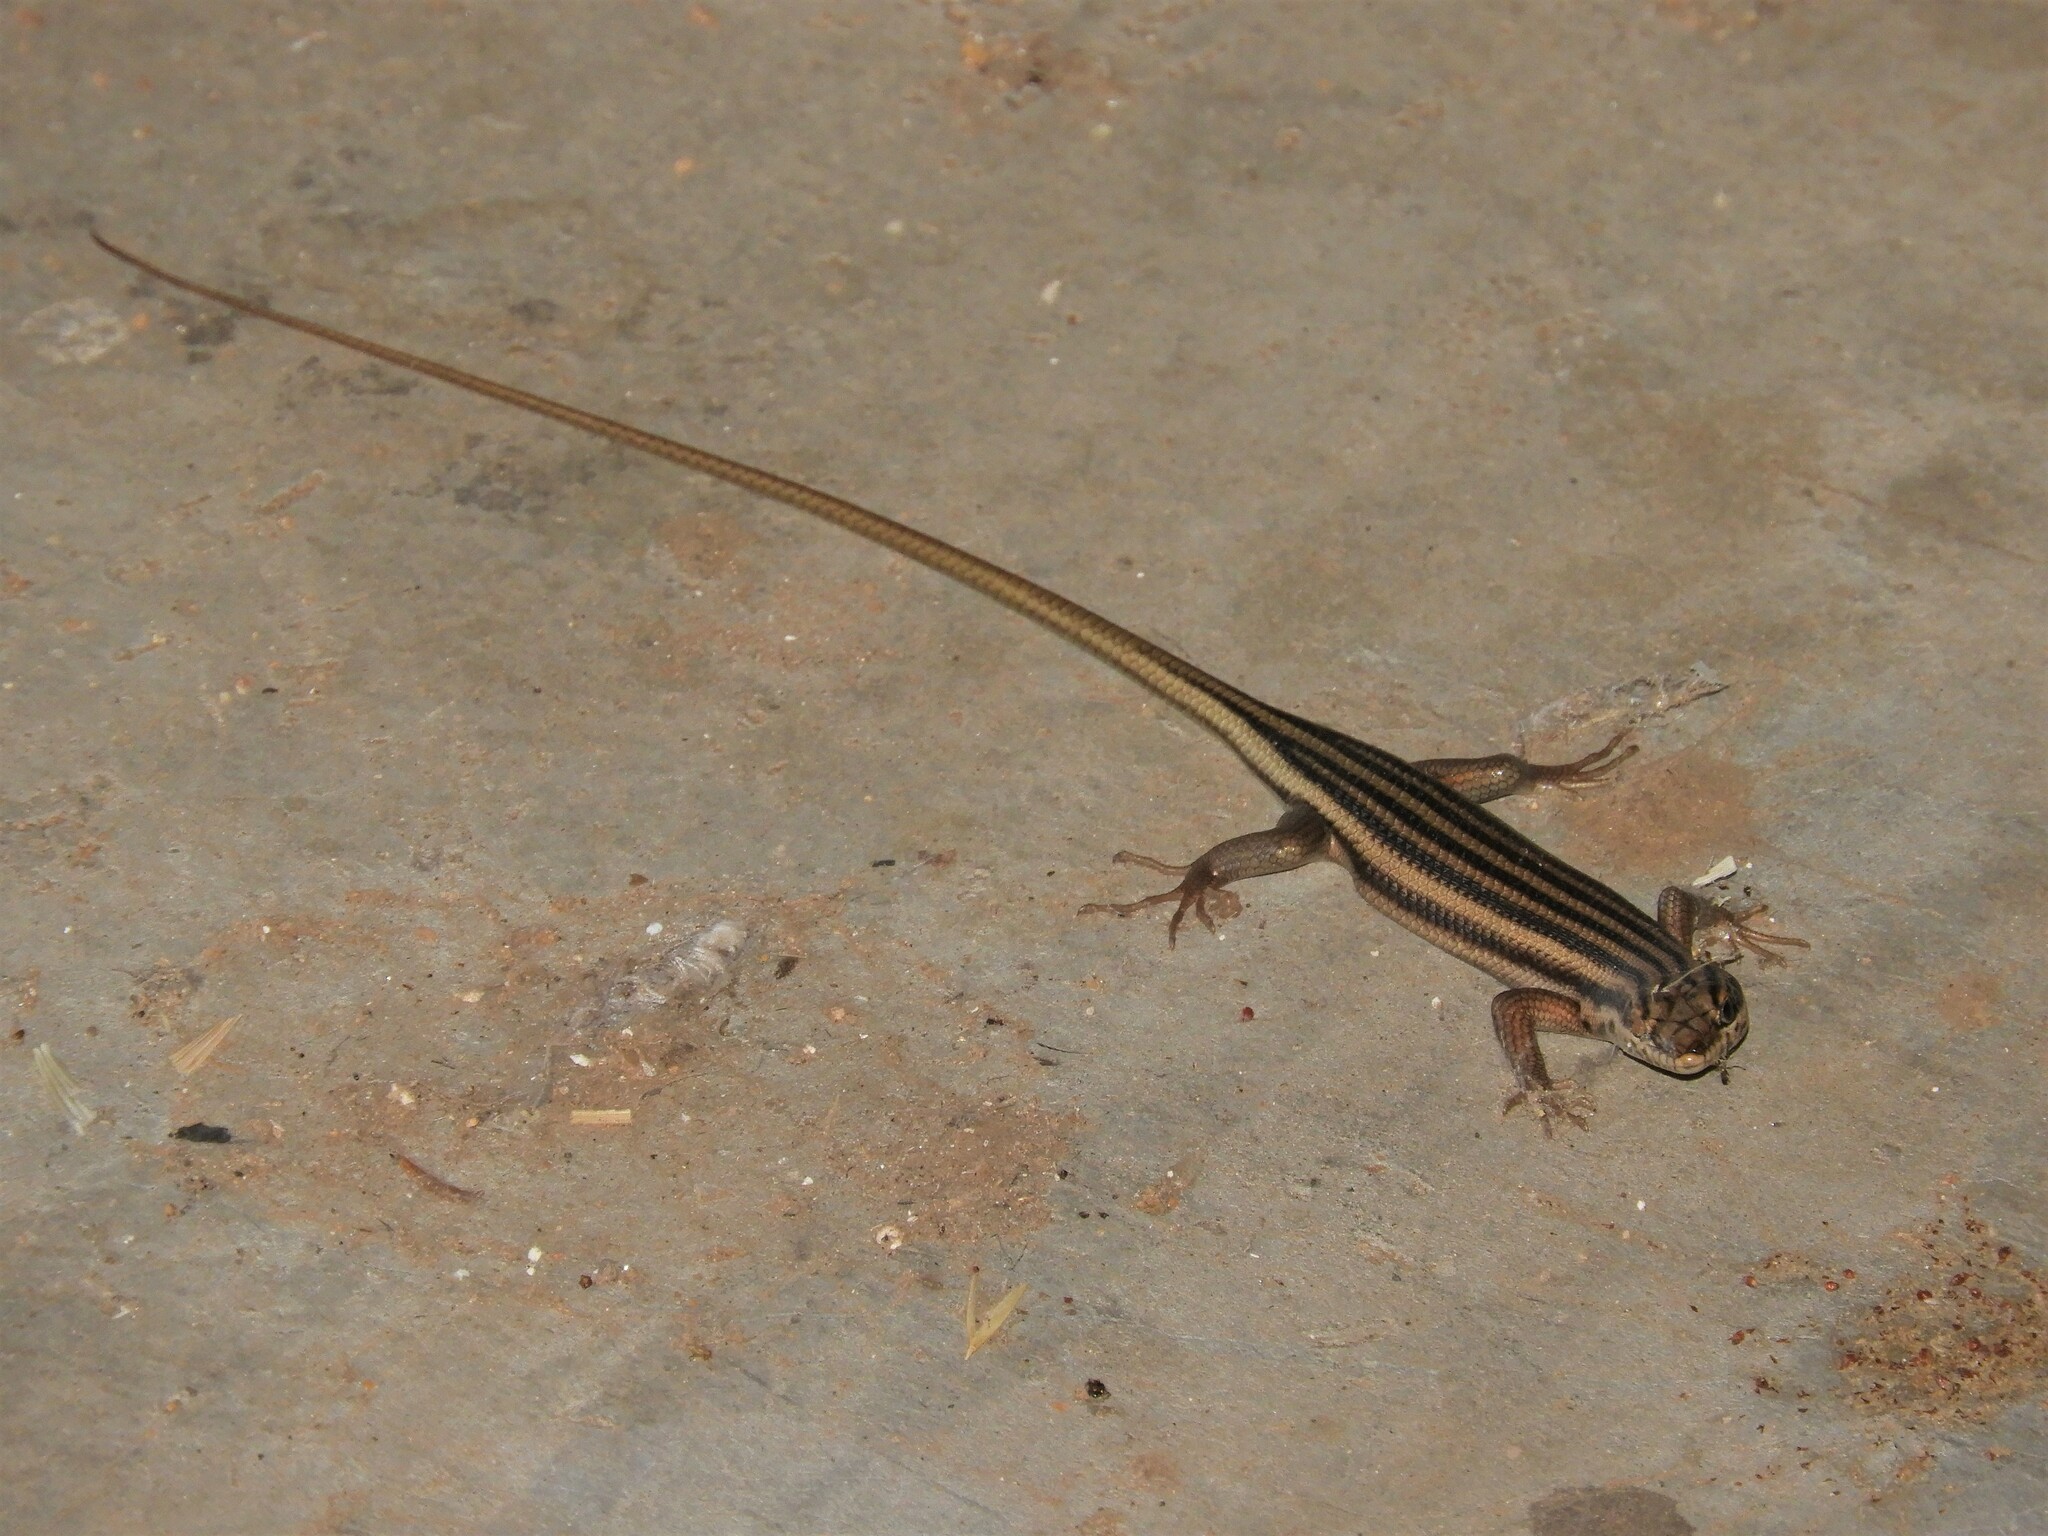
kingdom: Animalia
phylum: Chordata
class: Squamata
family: Scincidae
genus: Trachylepis
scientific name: Trachylepis sulcata
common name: Western rock skink
